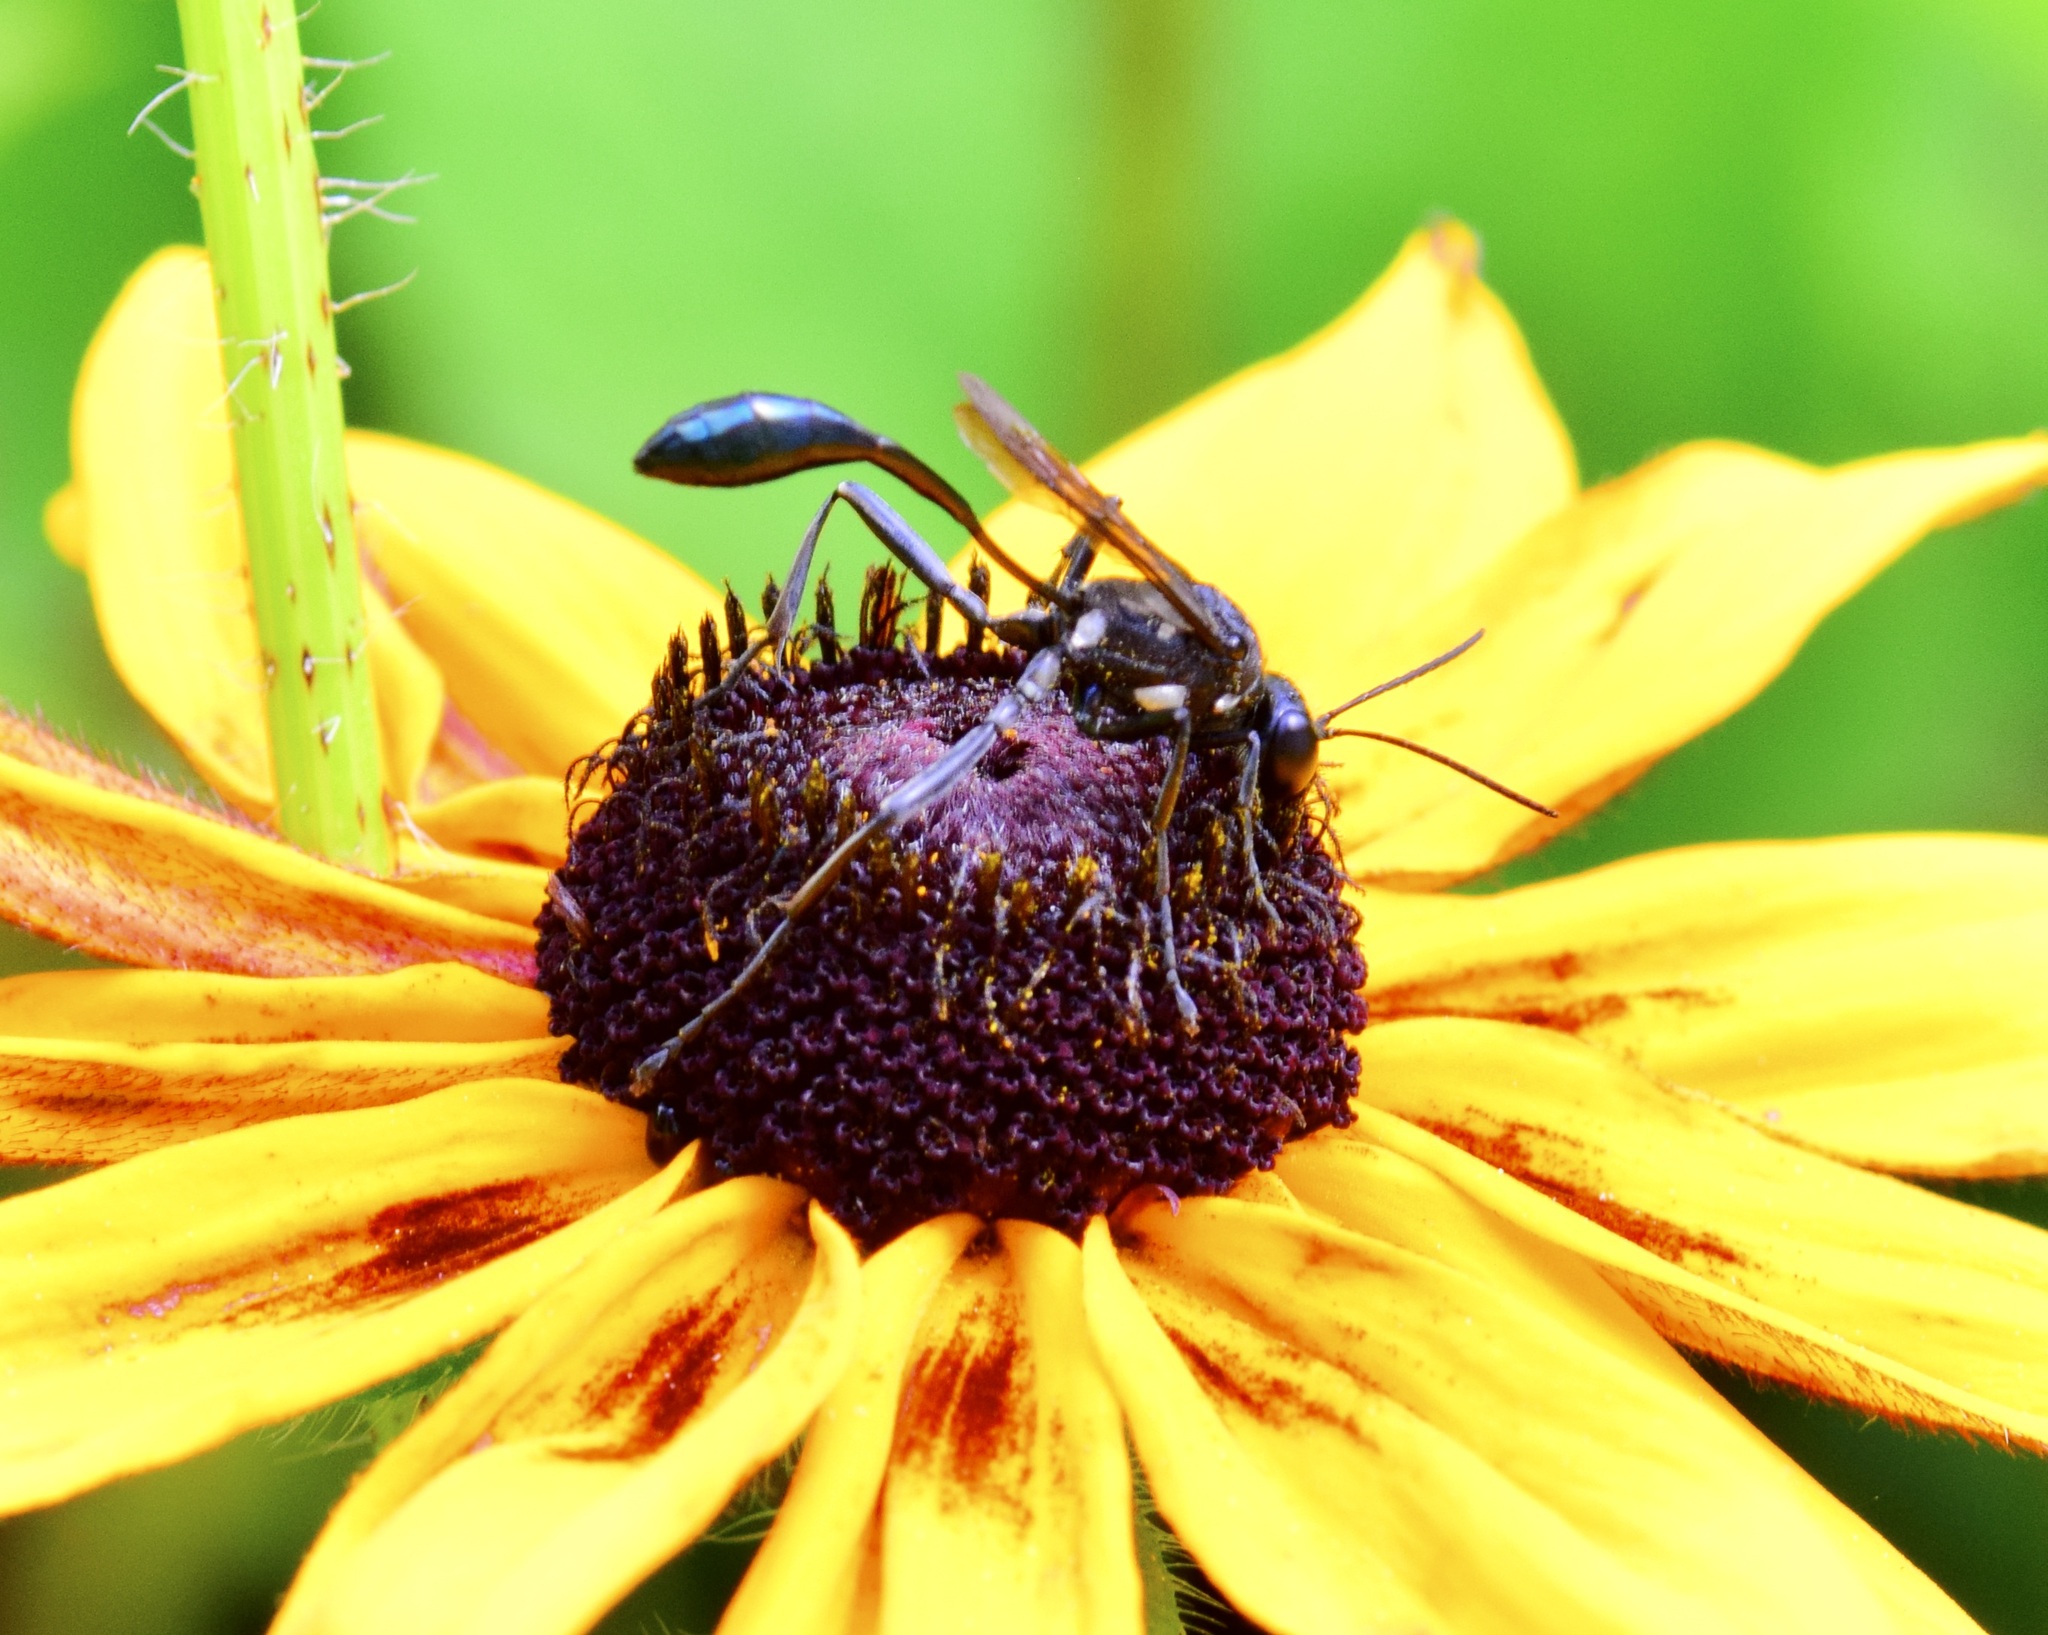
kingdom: Animalia
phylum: Arthropoda
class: Insecta
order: Hymenoptera
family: Sphecidae
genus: Eremnophila
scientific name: Eremnophila aureonotata
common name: Gold-marked thread-waisted wasp
